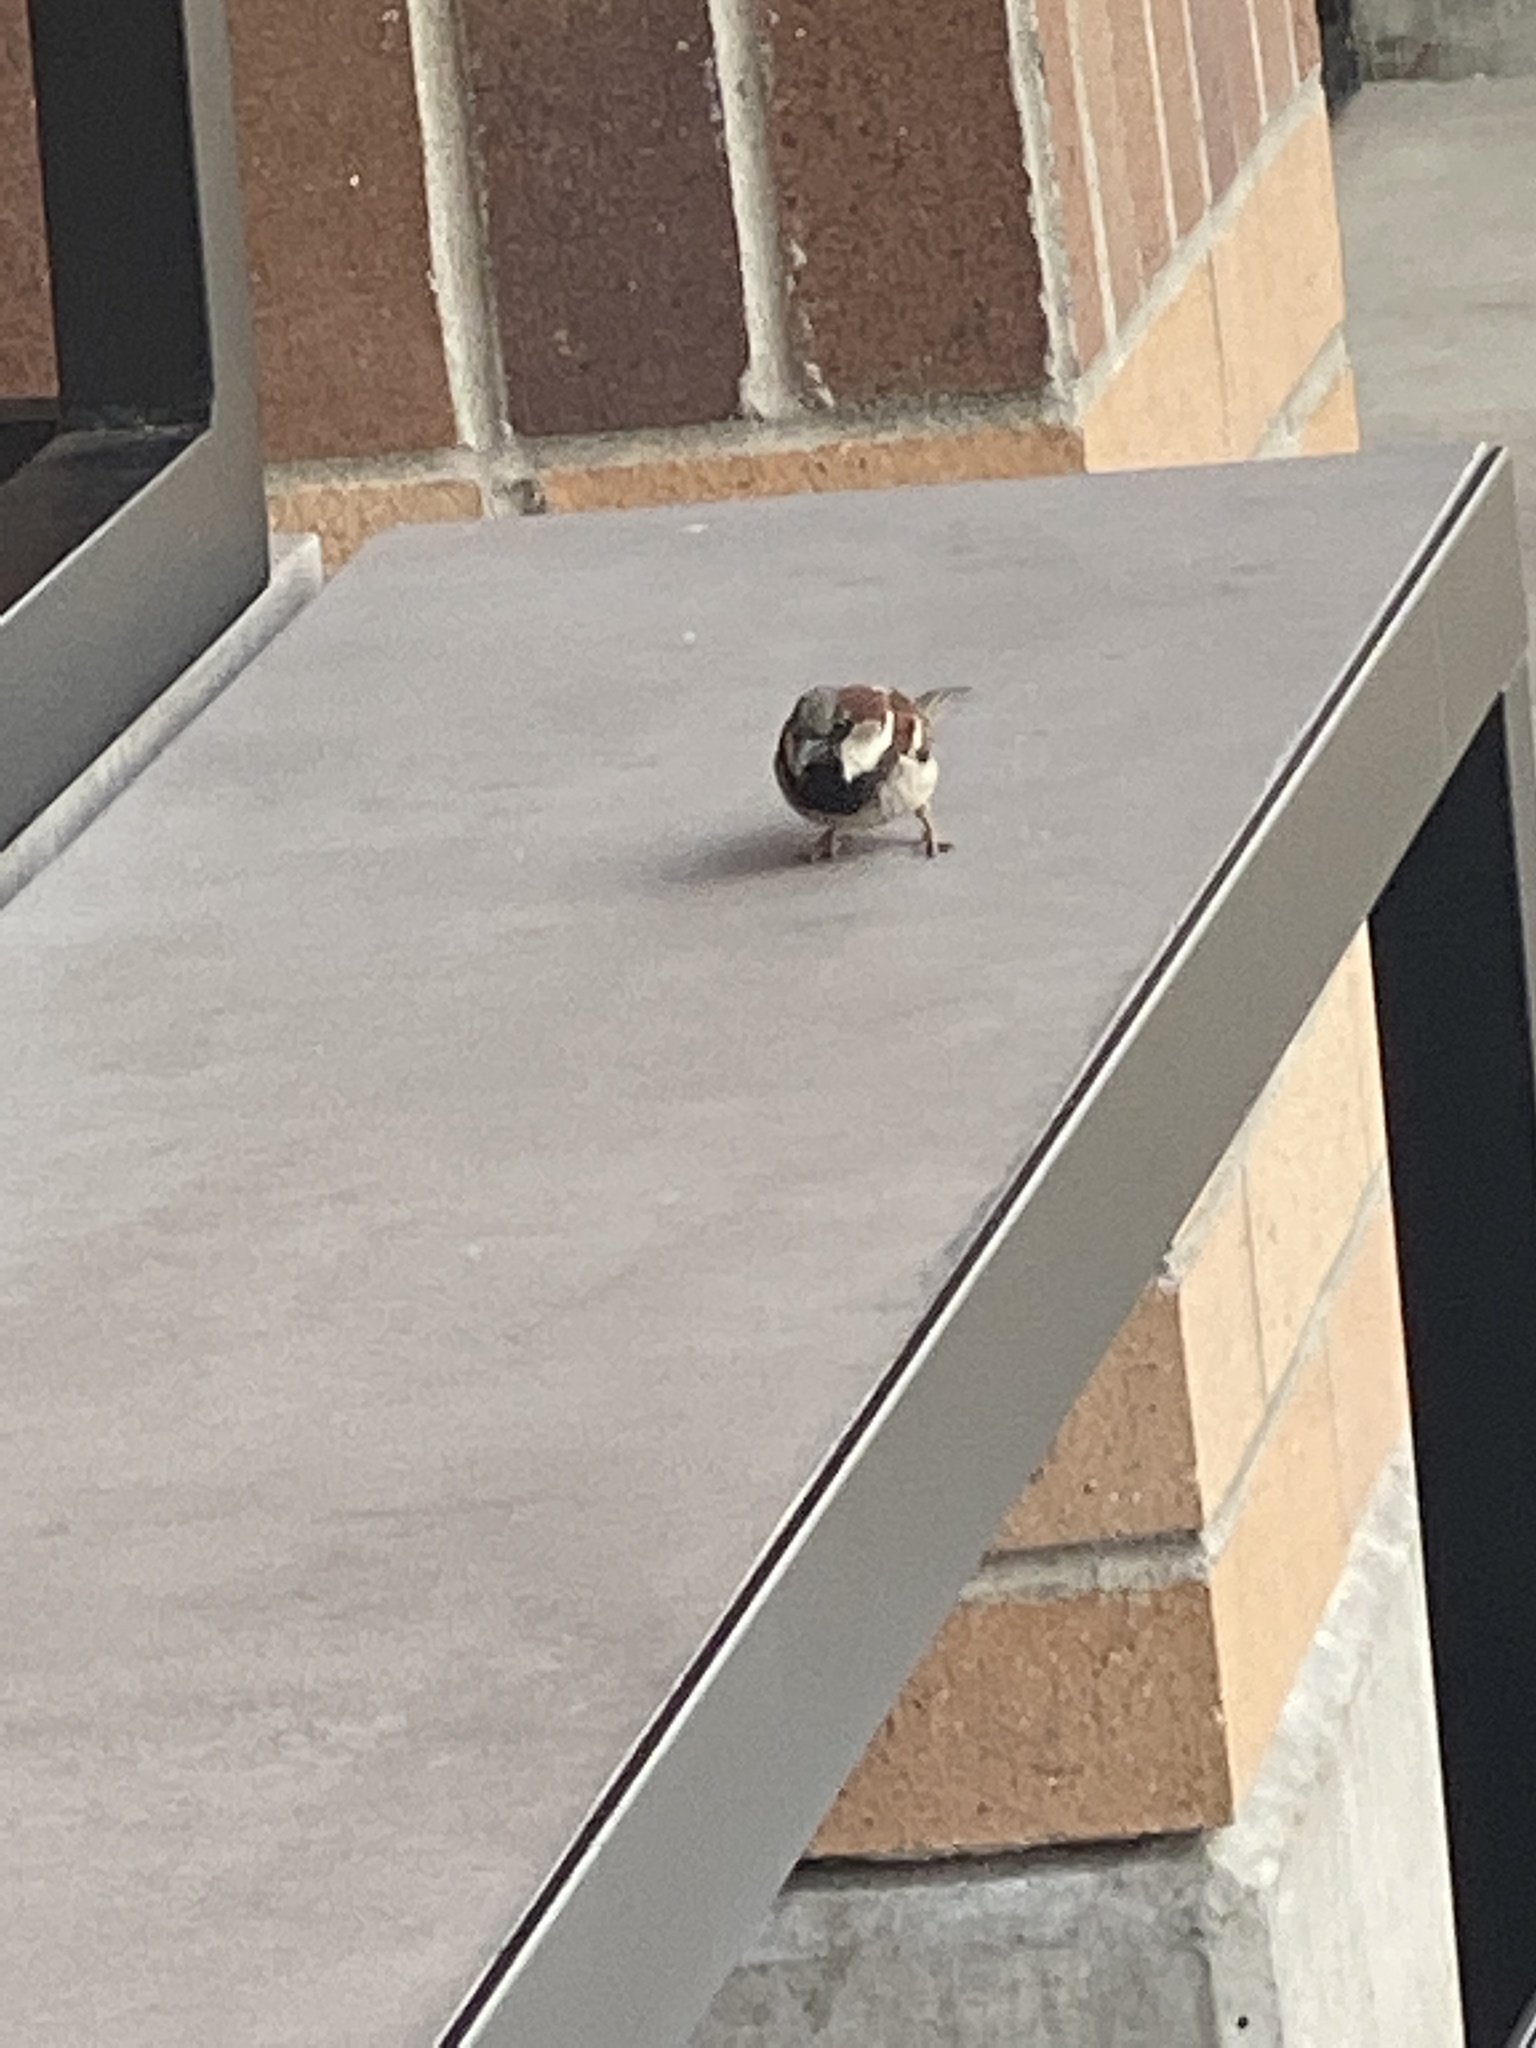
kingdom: Animalia
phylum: Chordata
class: Aves
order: Passeriformes
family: Passeridae
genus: Passer
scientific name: Passer domesticus
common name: House sparrow
